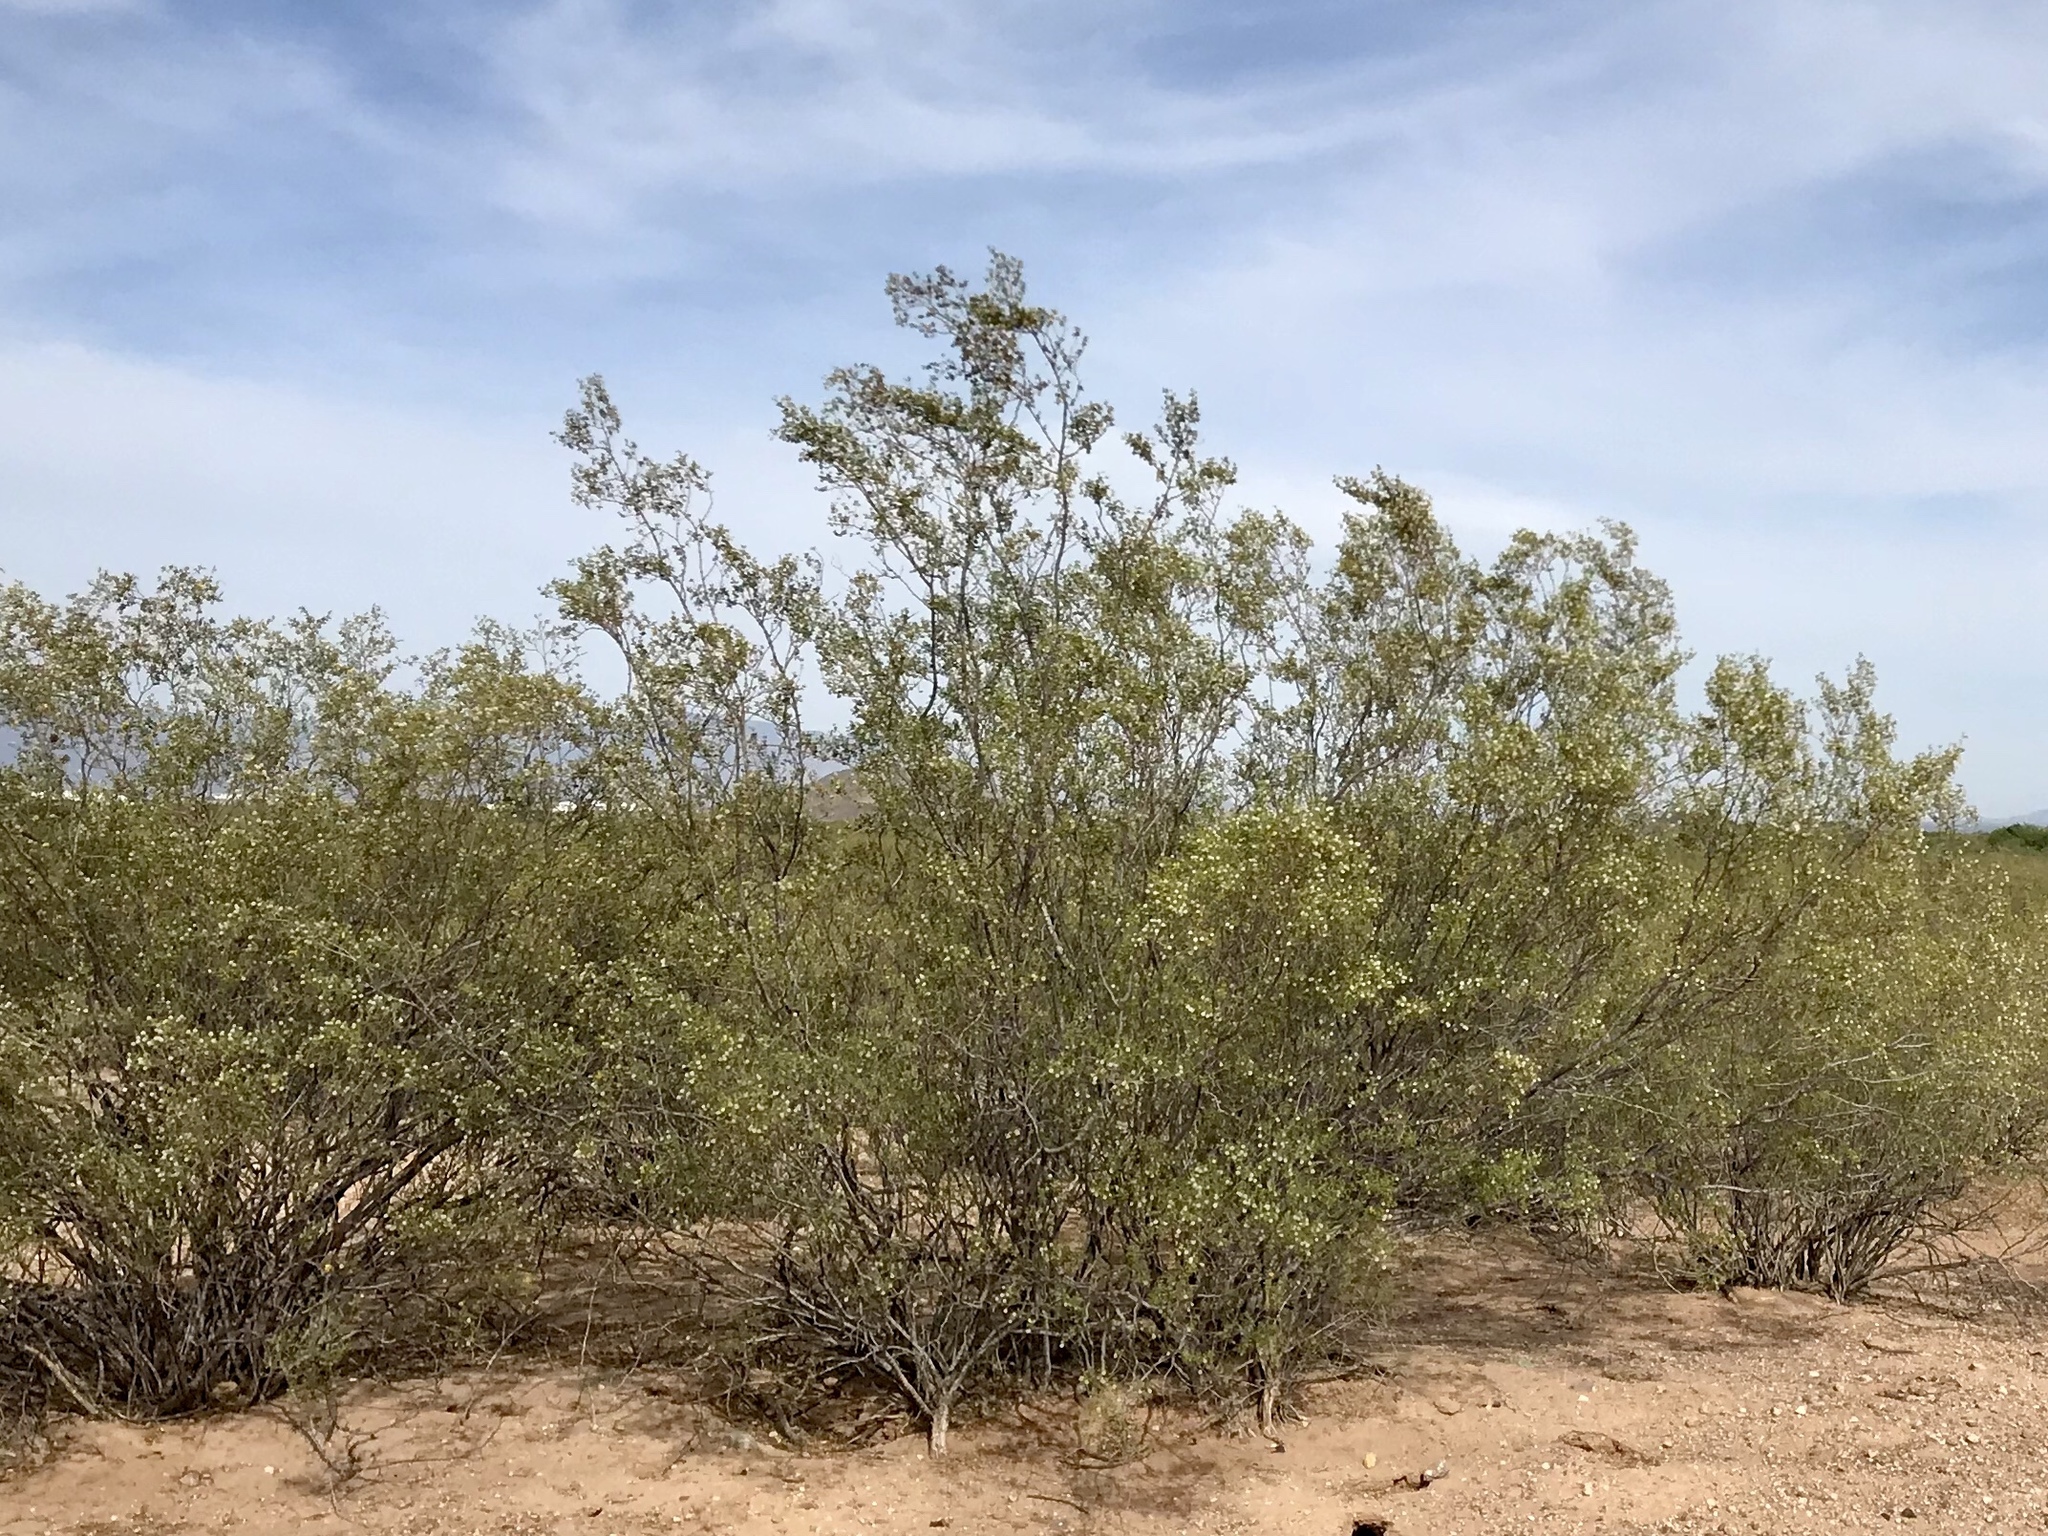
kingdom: Plantae
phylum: Tracheophyta
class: Magnoliopsida
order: Zygophyllales
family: Zygophyllaceae
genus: Larrea
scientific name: Larrea tridentata
